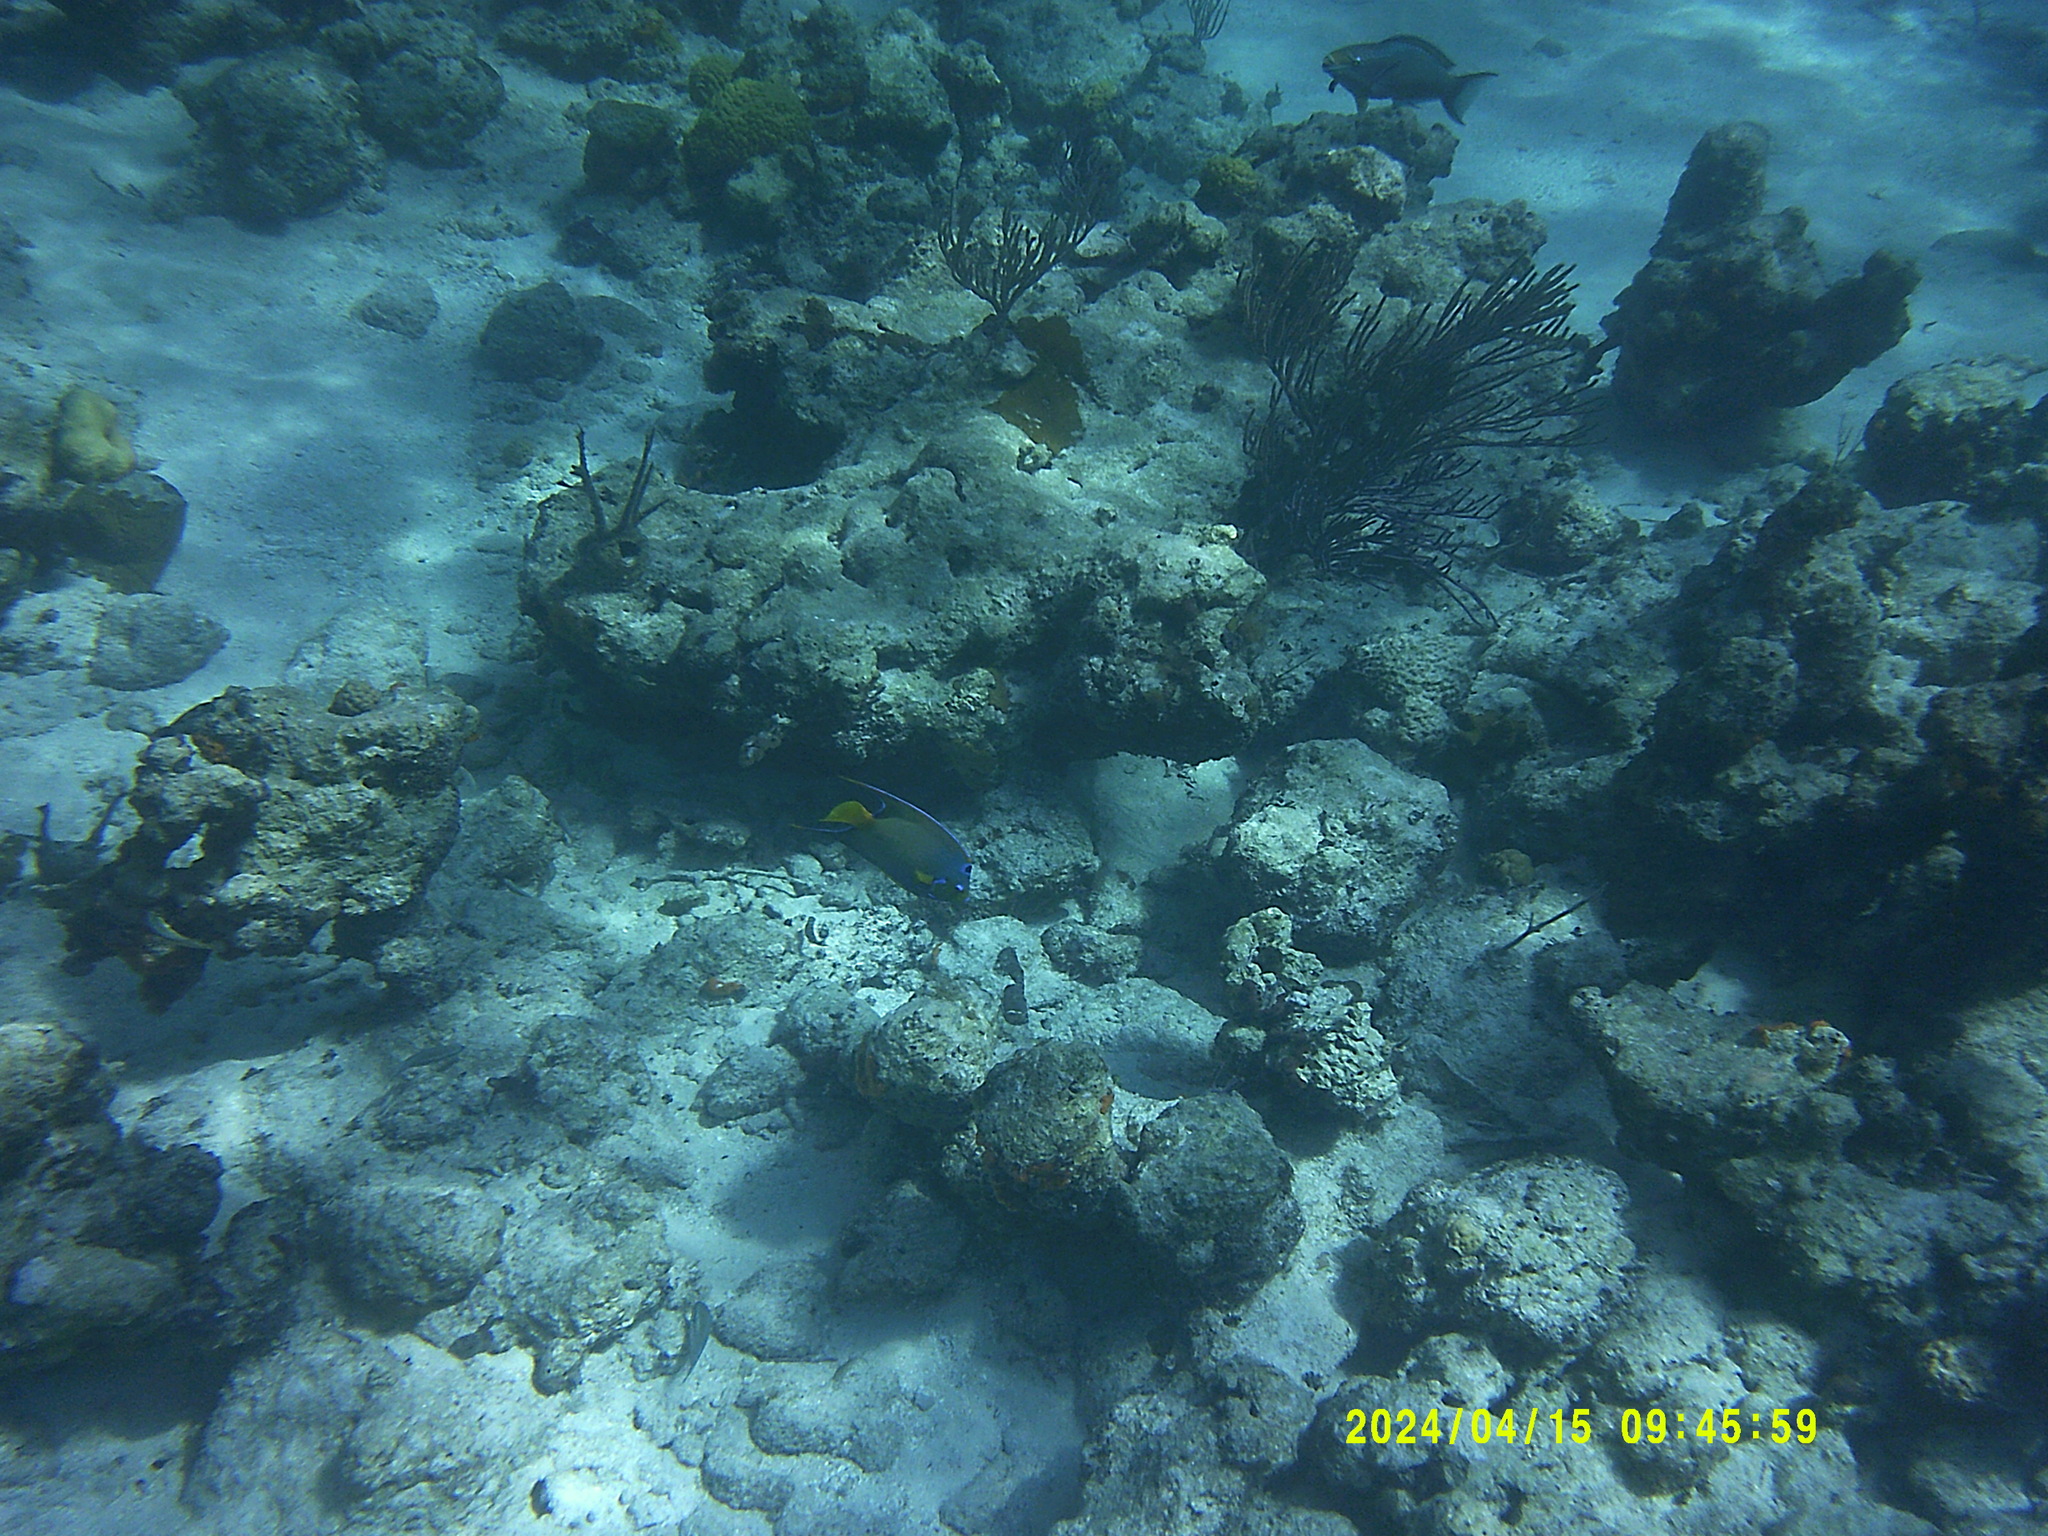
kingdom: Animalia
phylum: Chordata
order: Perciformes
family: Pomacanthidae
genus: Holacanthus
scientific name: Holacanthus ciliaris
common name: Queen angelfish
